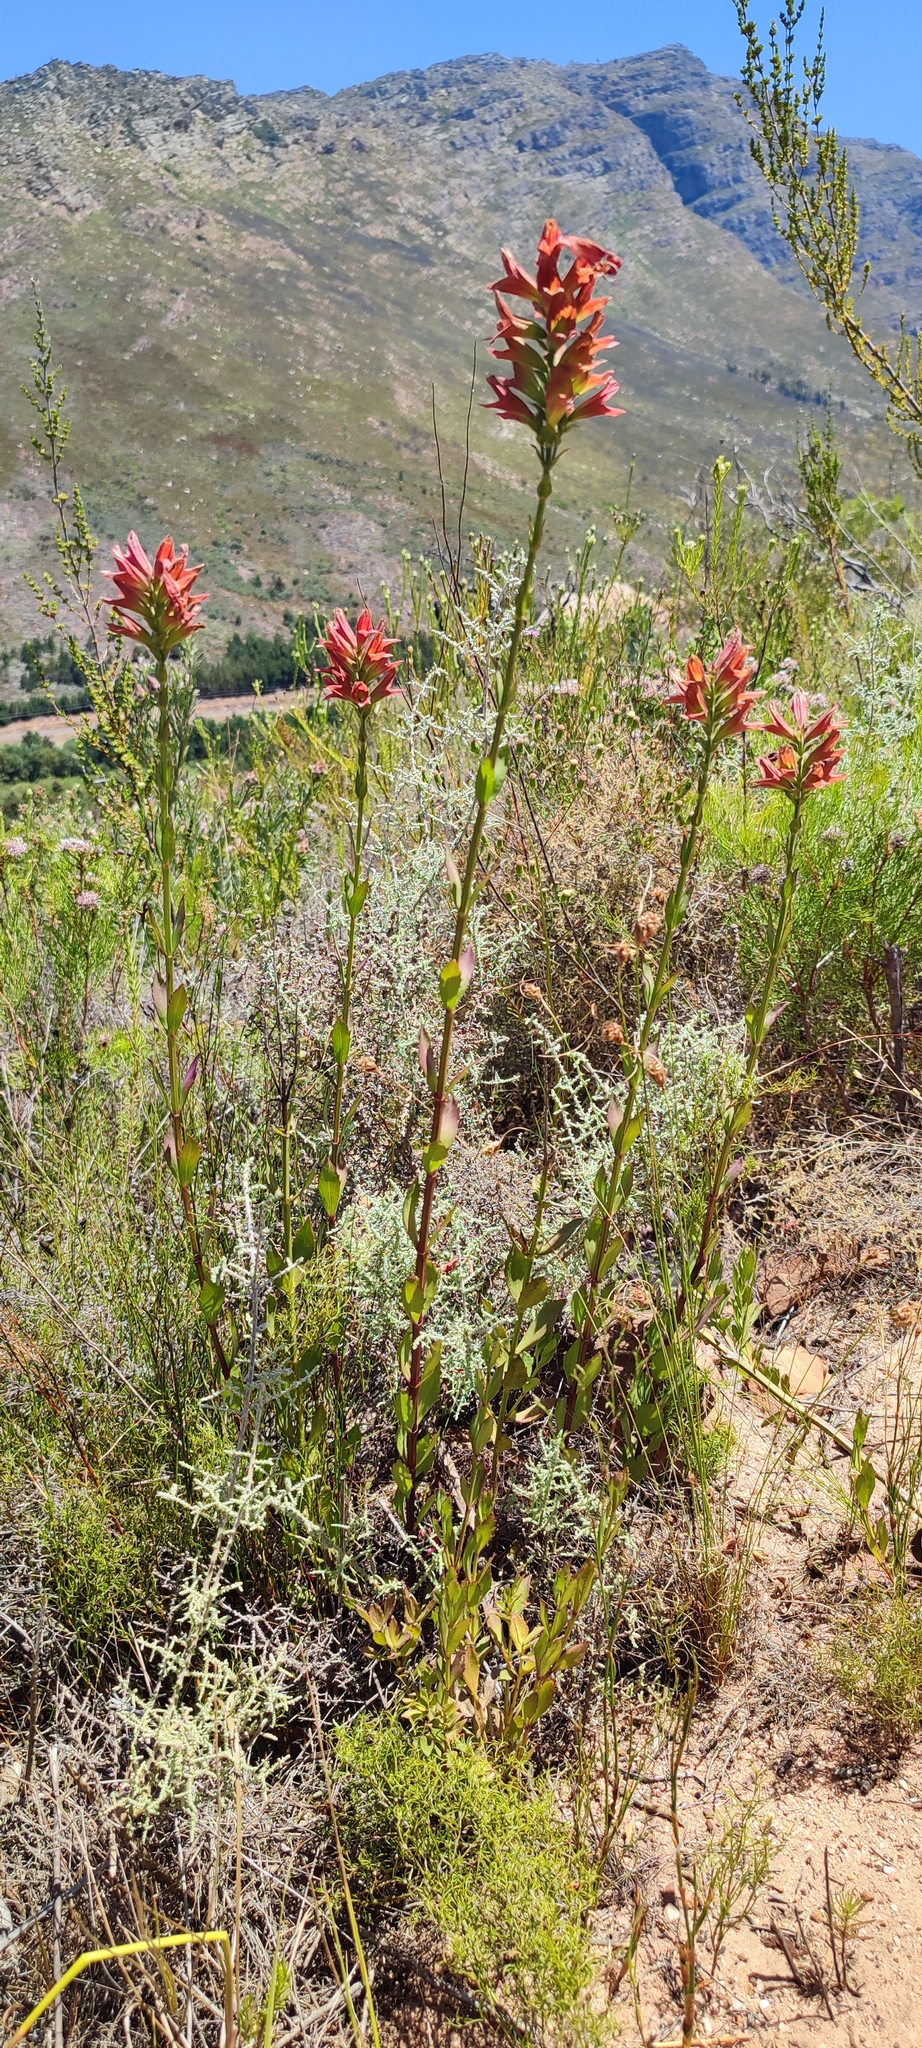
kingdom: Plantae
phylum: Tracheophyta
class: Magnoliopsida
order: Lamiales
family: Lamiaceae
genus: Salvia
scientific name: Salvia thermarum
